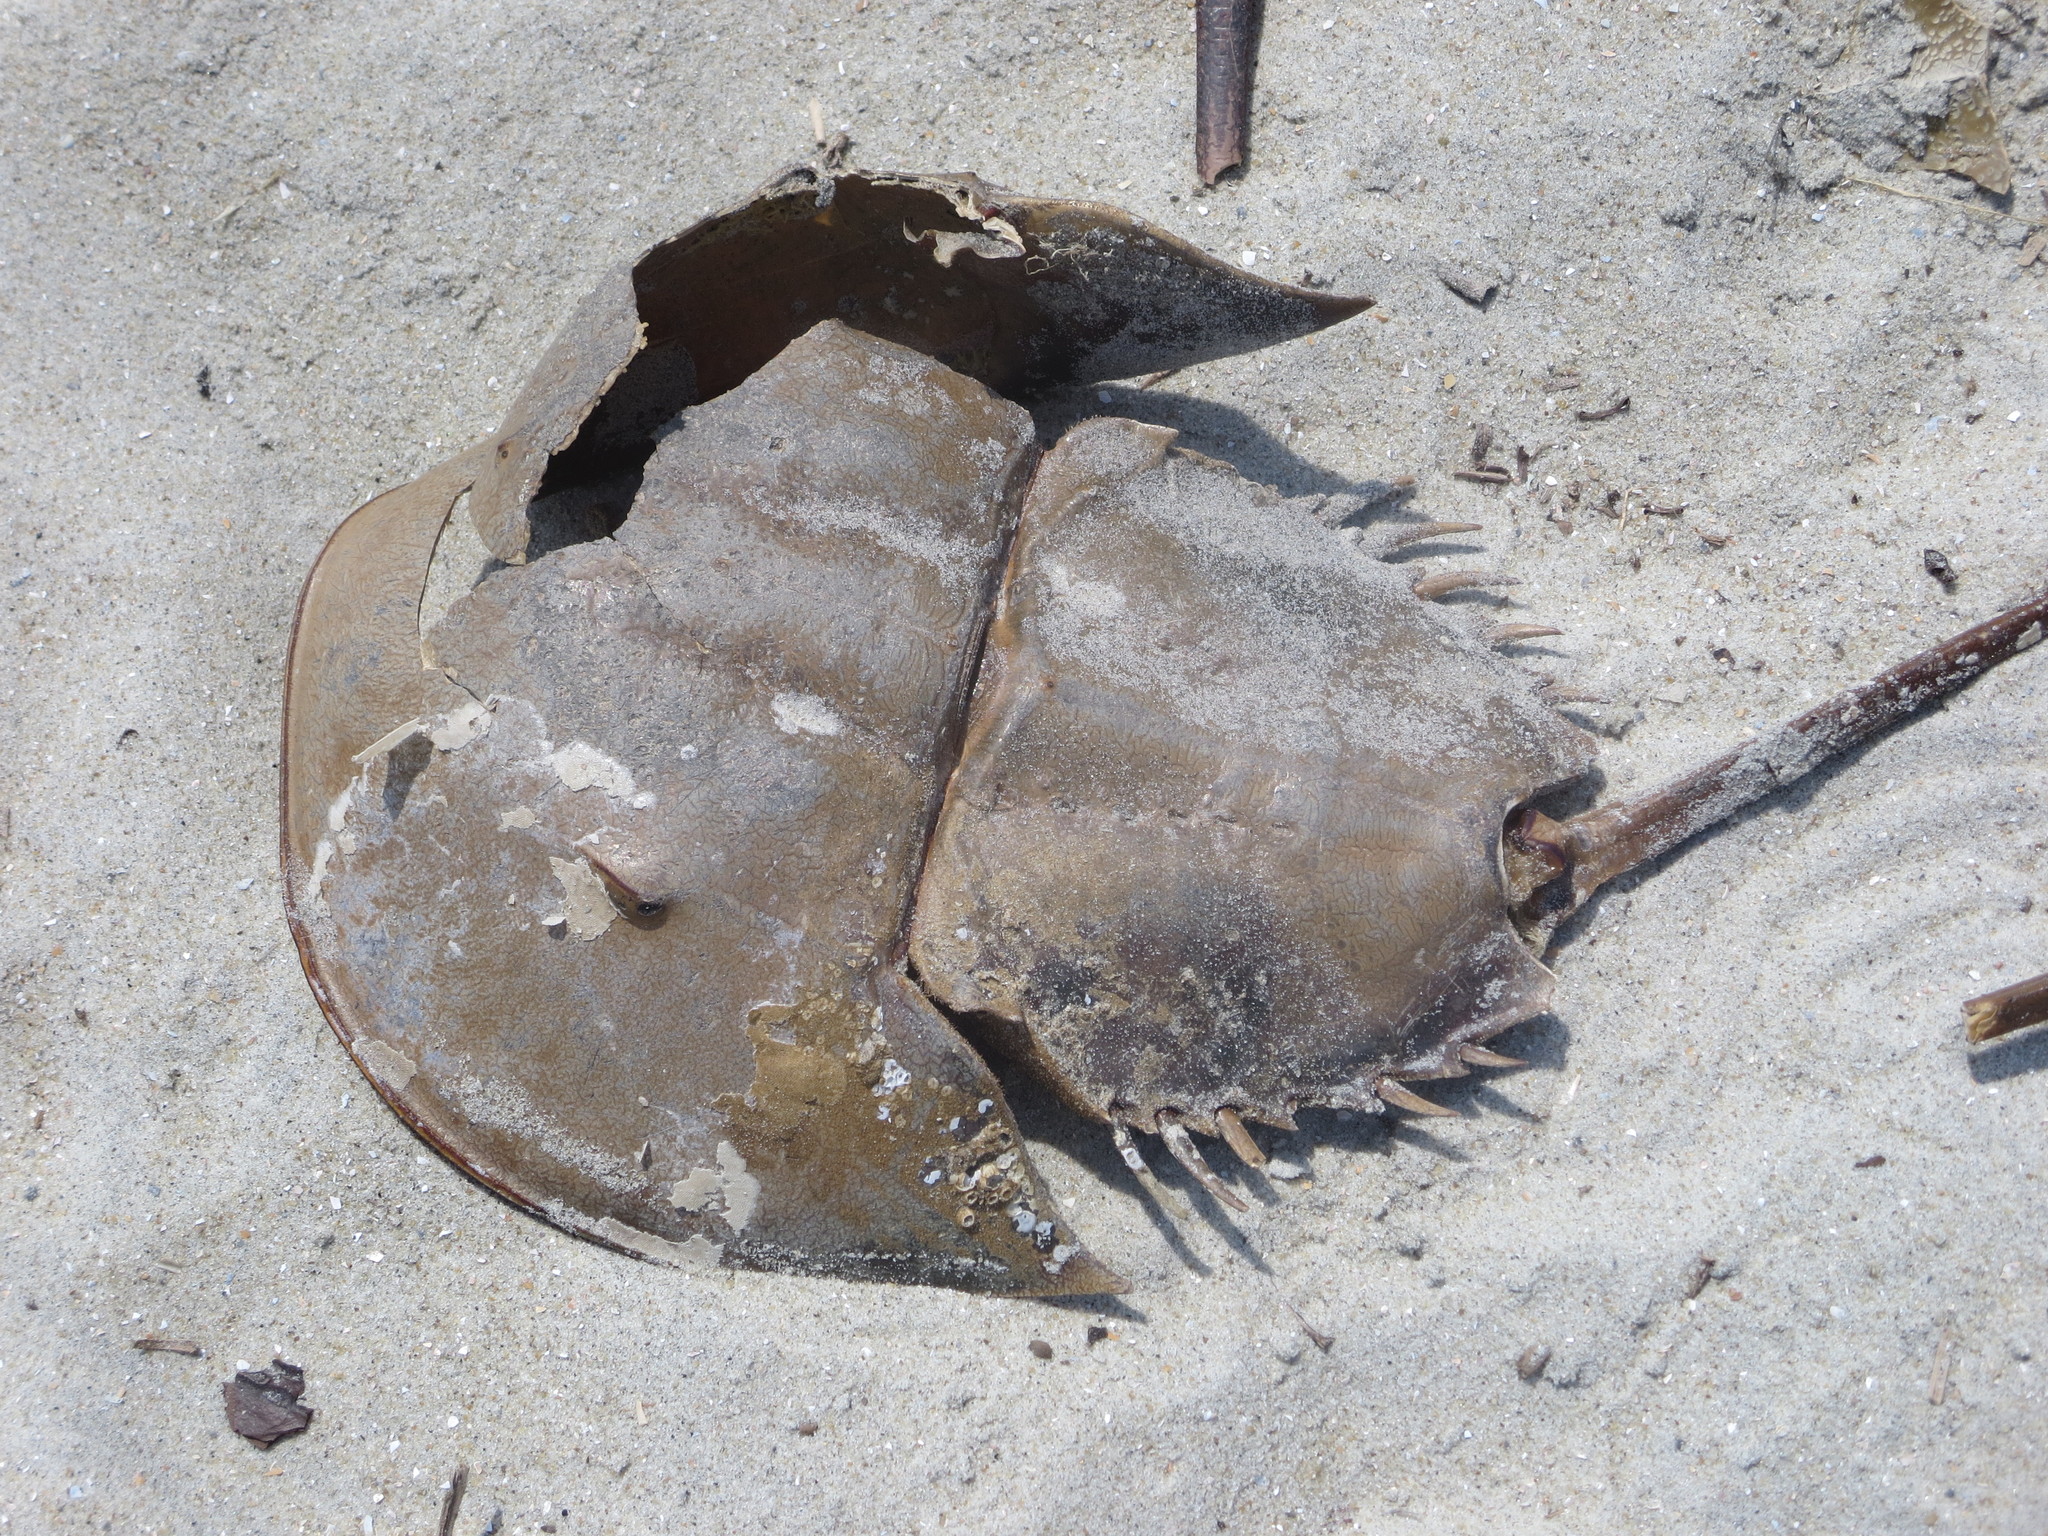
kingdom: Animalia
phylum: Arthropoda
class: Merostomata
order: Xiphosurida
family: Limulidae
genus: Limulus
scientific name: Limulus polyphemus
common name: Horseshoe crab
